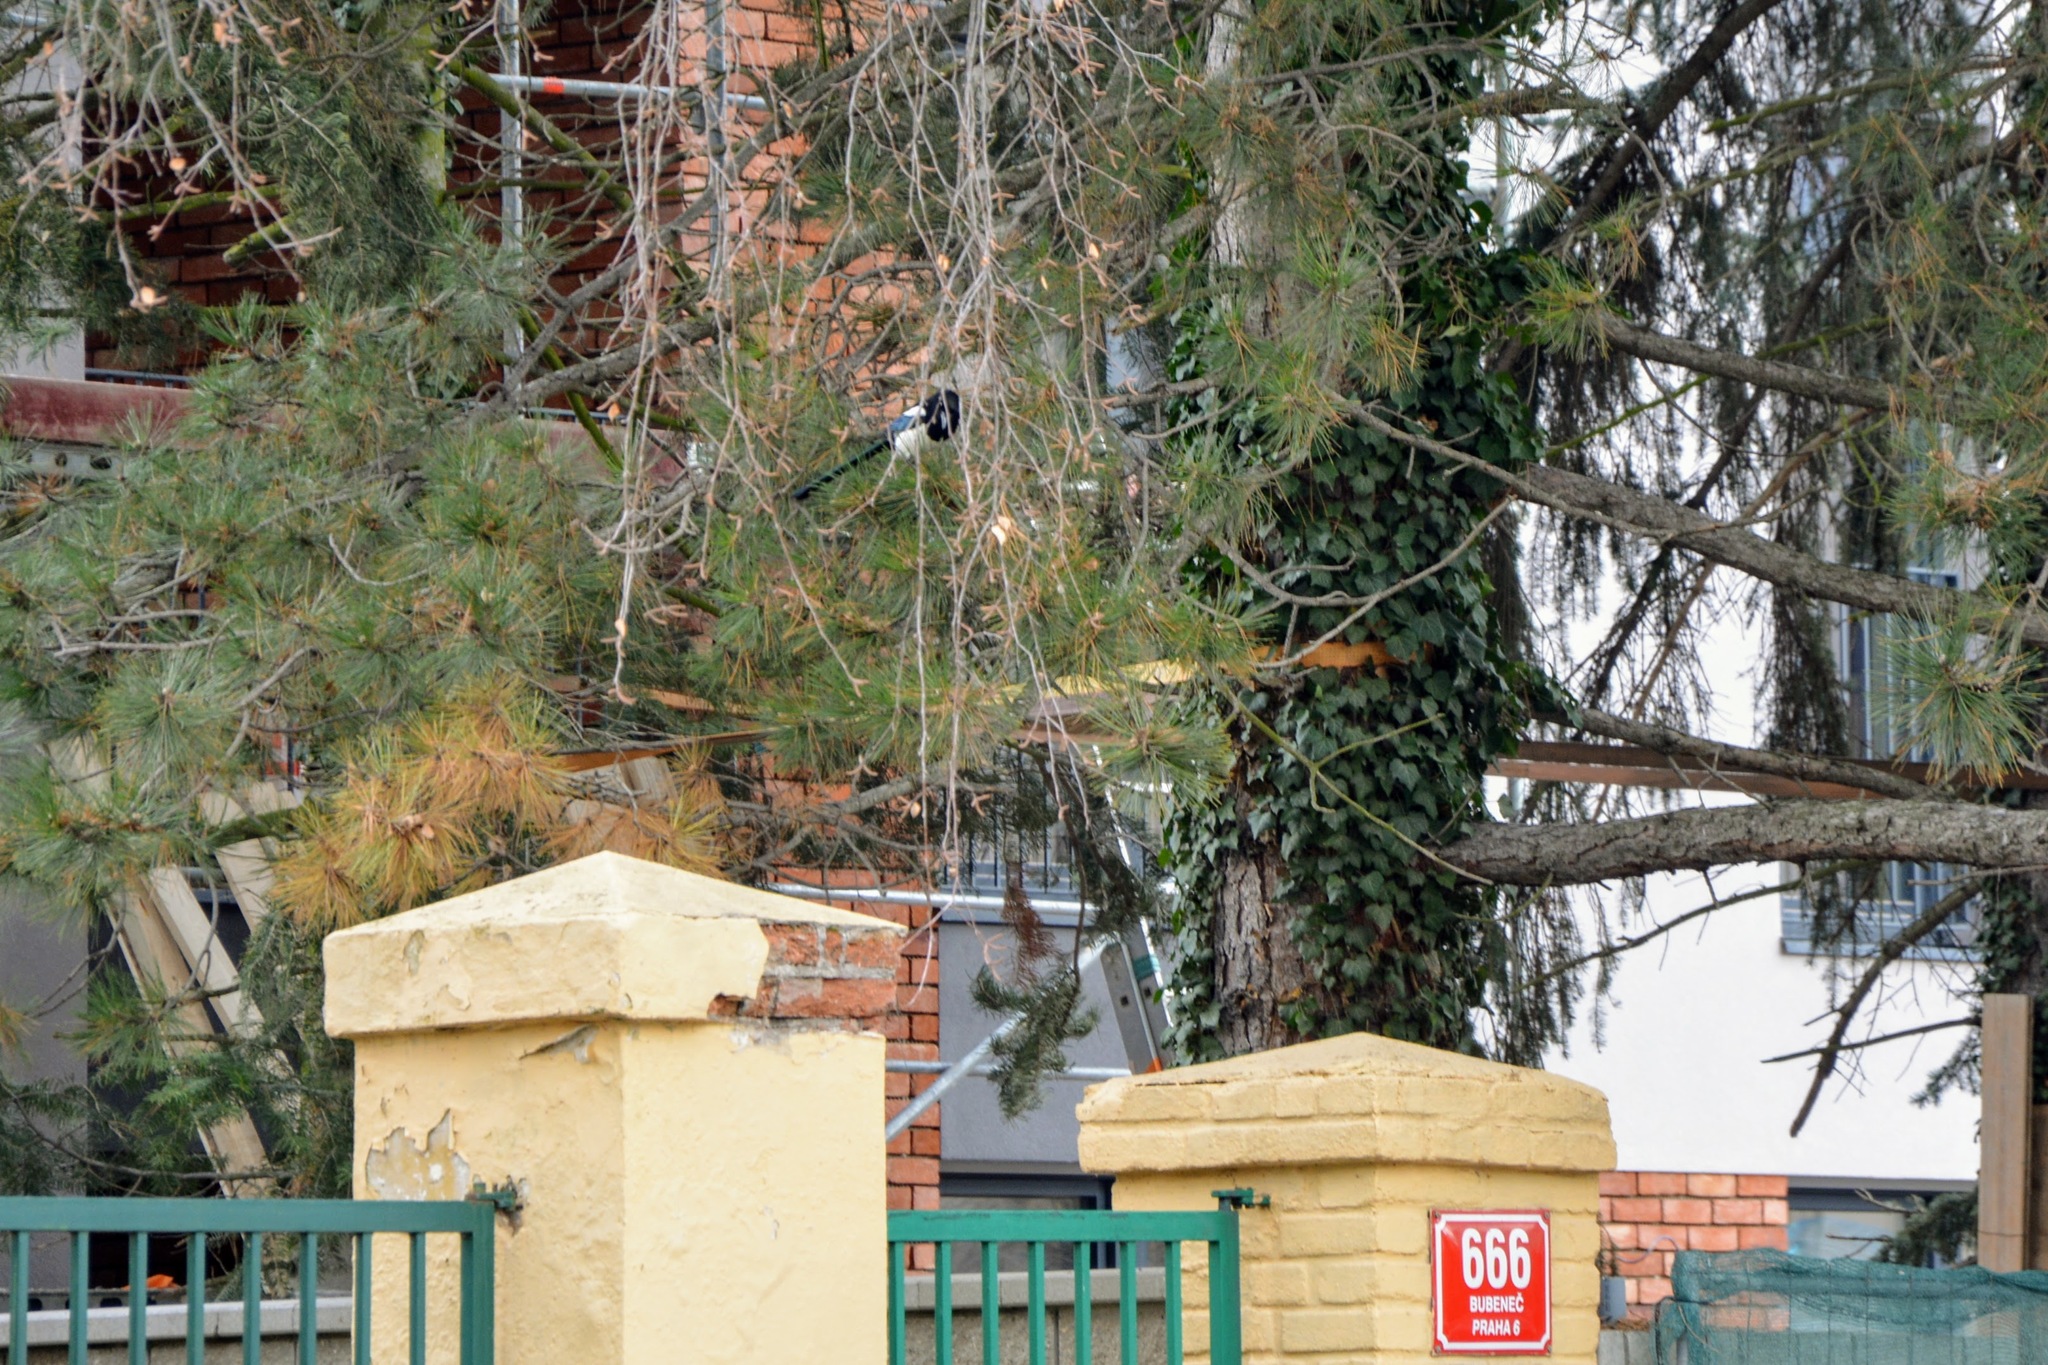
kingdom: Animalia
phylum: Chordata
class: Aves
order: Passeriformes
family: Corvidae
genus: Pica
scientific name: Pica pica
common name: Eurasian magpie
